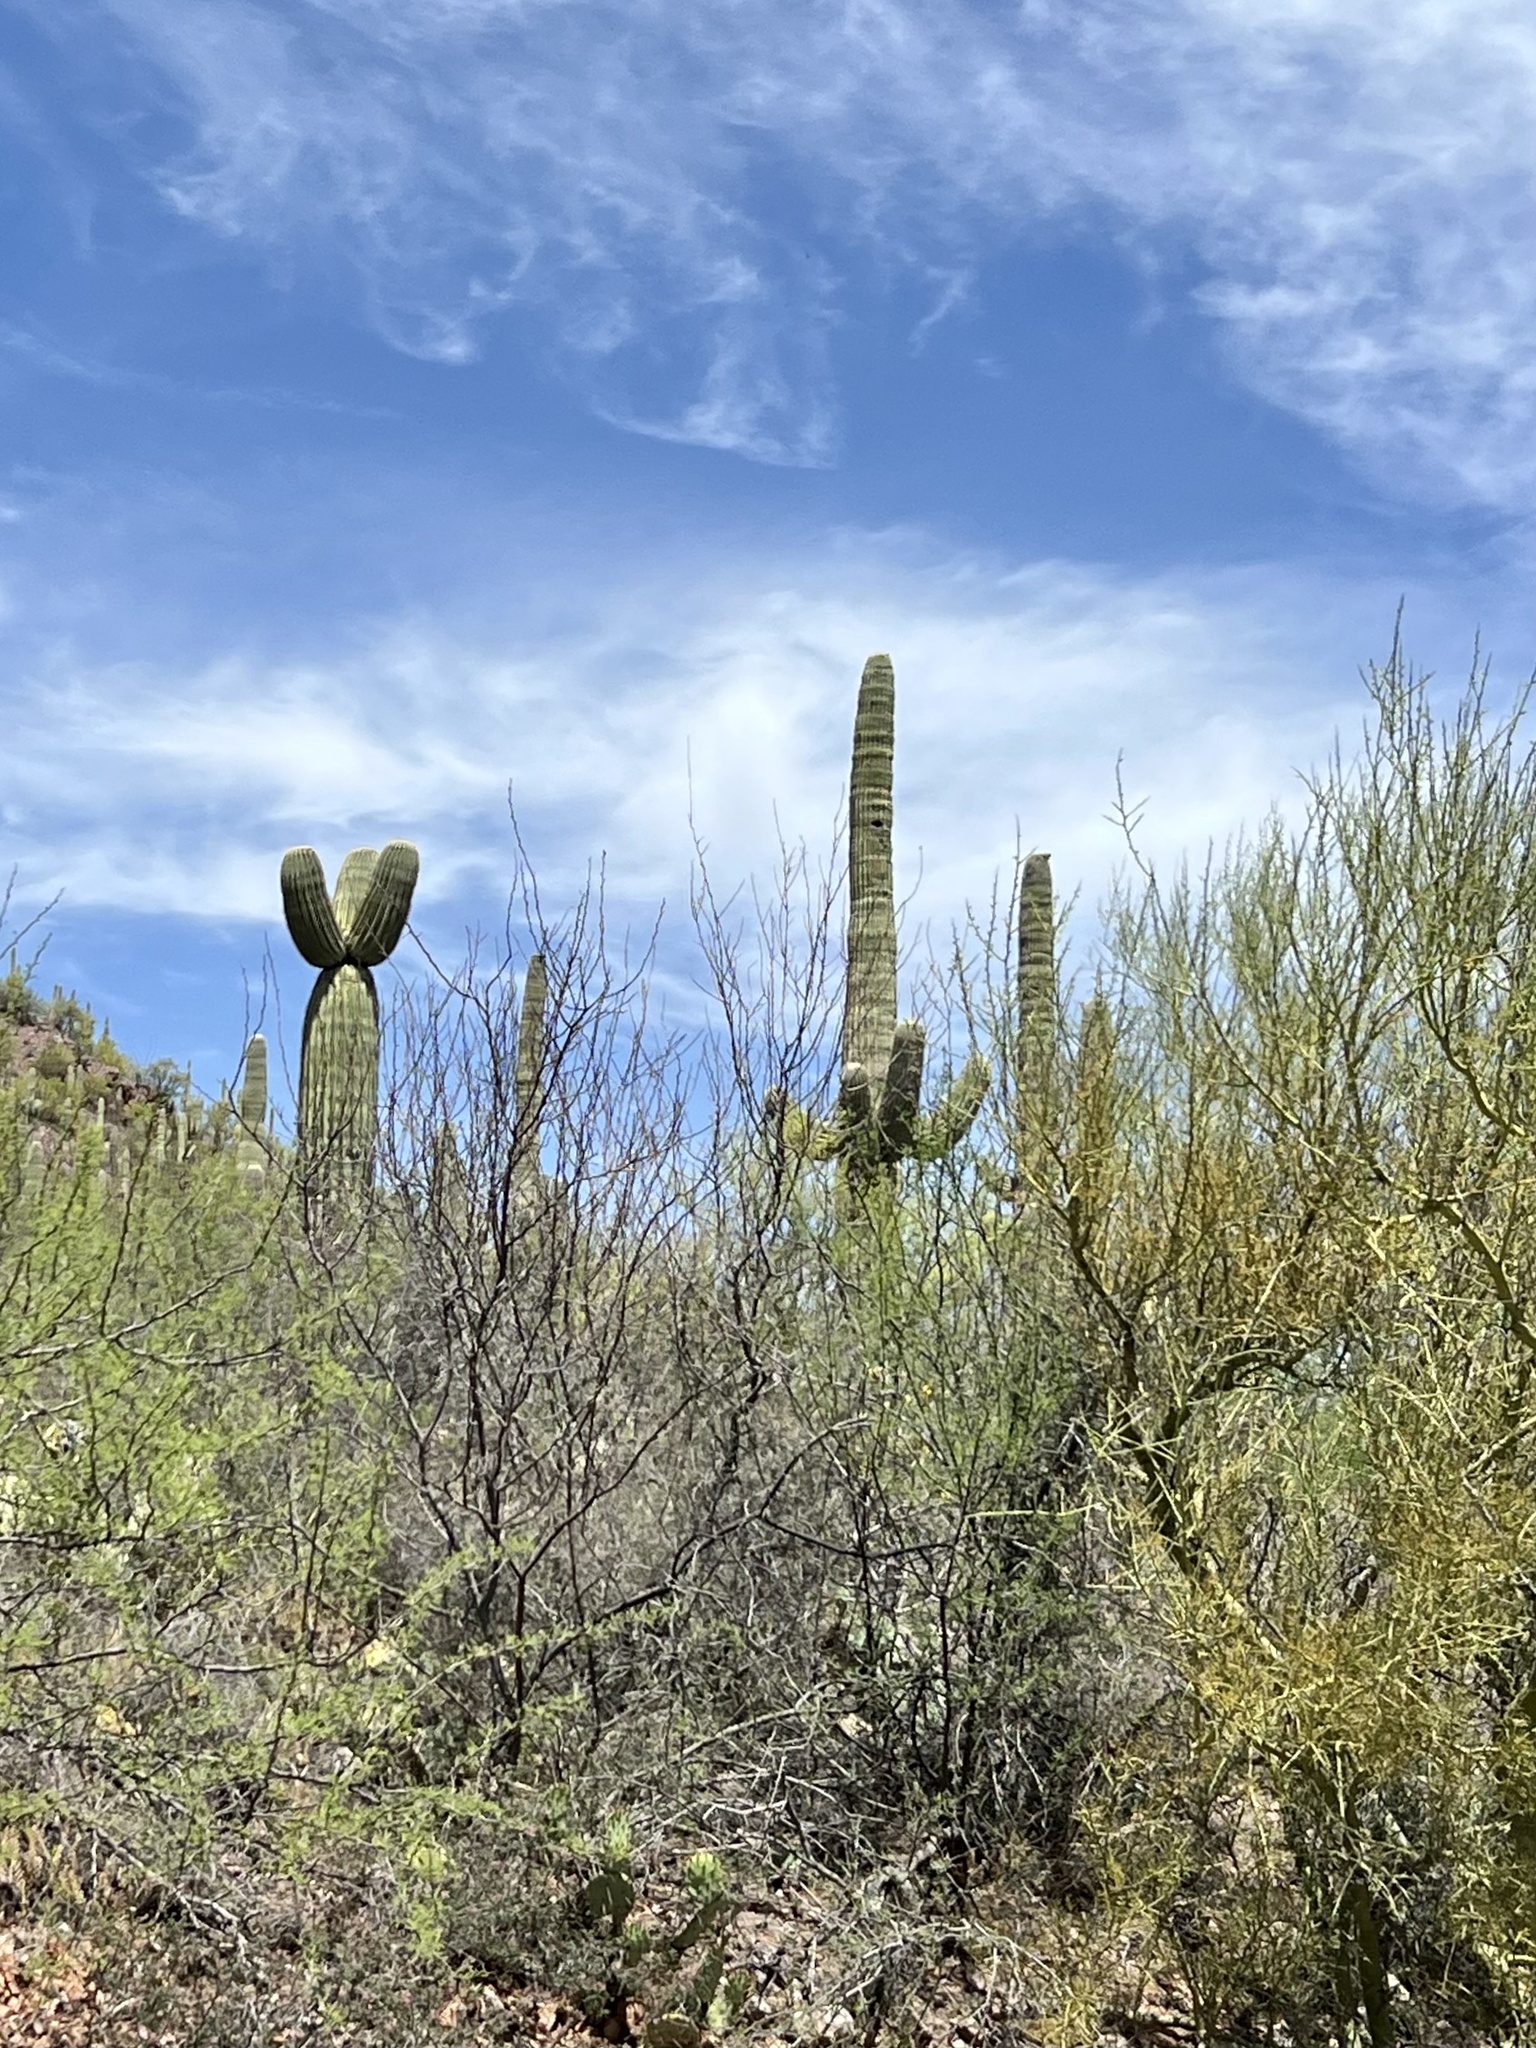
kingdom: Plantae
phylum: Tracheophyta
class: Magnoliopsida
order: Caryophyllales
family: Cactaceae
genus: Carnegiea
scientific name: Carnegiea gigantea
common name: Saguaro
